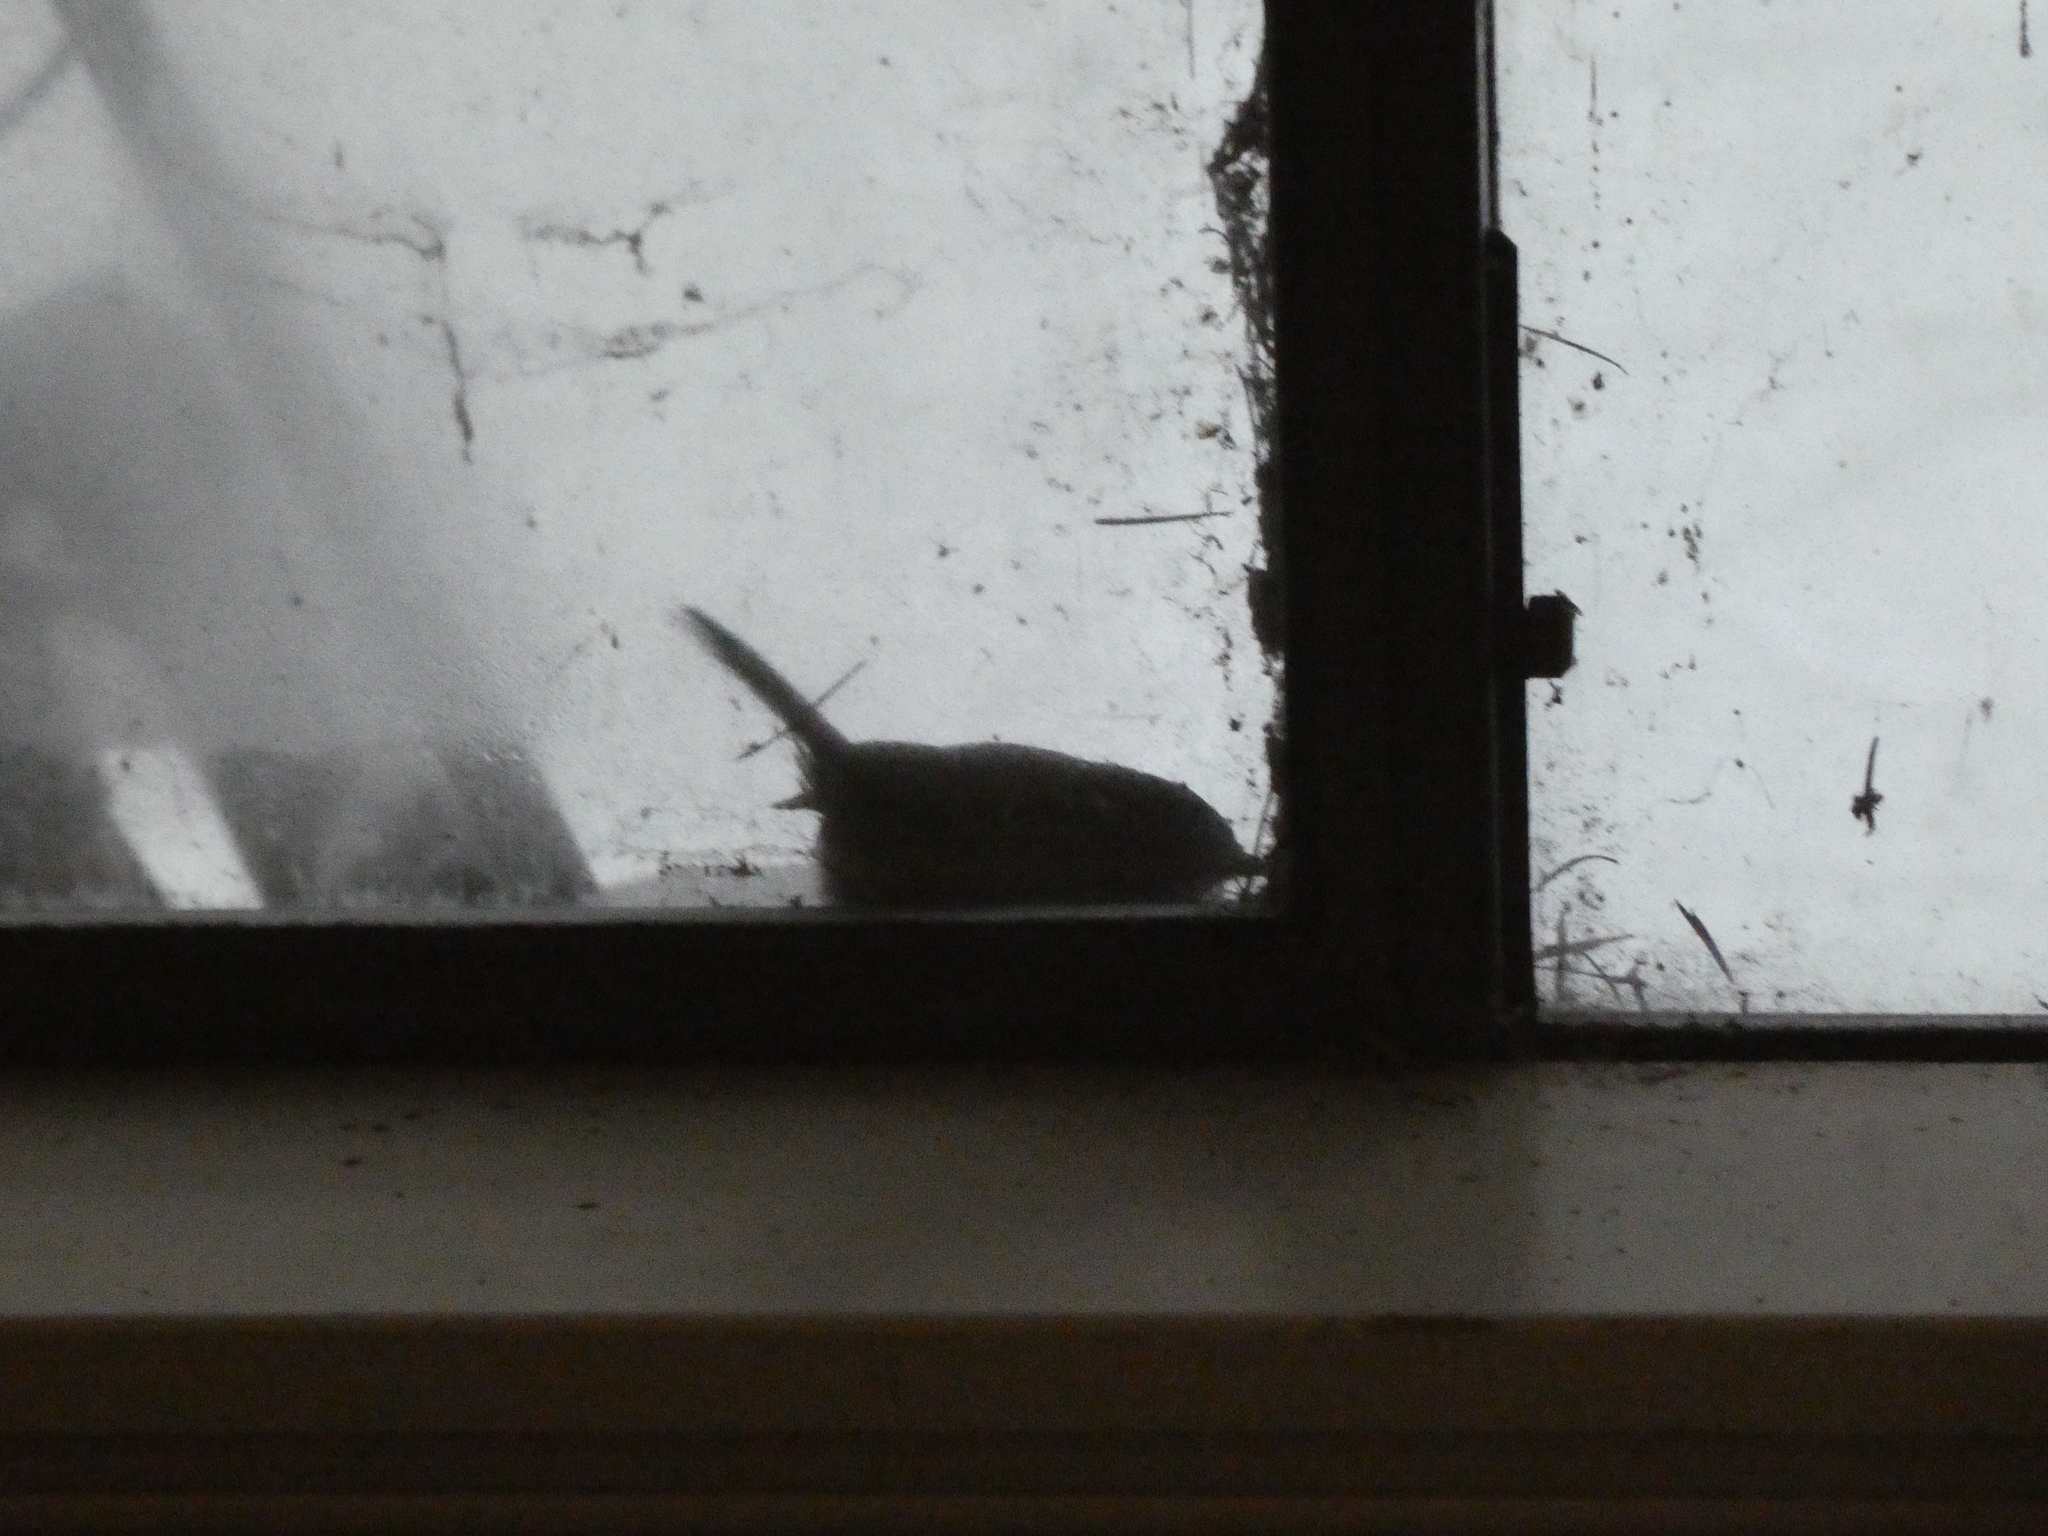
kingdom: Animalia
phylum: Chordata
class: Aves
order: Passeriformes
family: Troglodytidae
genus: Thryomanes
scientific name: Thryomanes bewickii
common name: Bewick's wren
